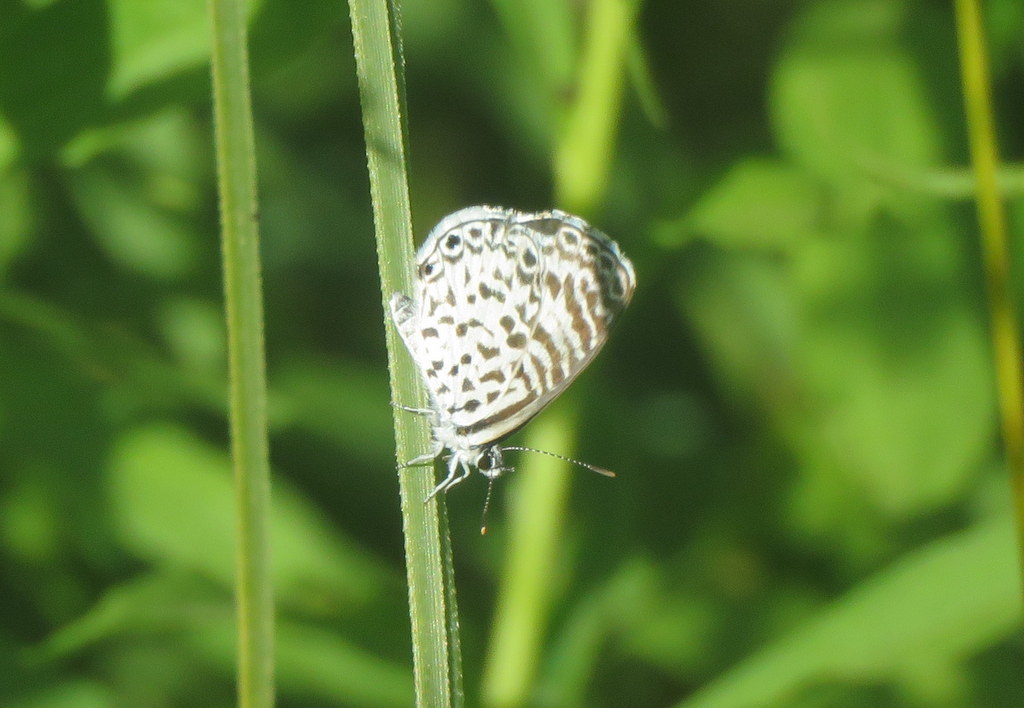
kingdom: Animalia
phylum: Arthropoda
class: Insecta
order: Lepidoptera
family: Lycaenidae
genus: Leptotes
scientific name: Leptotes cassius
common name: Cassius blue
